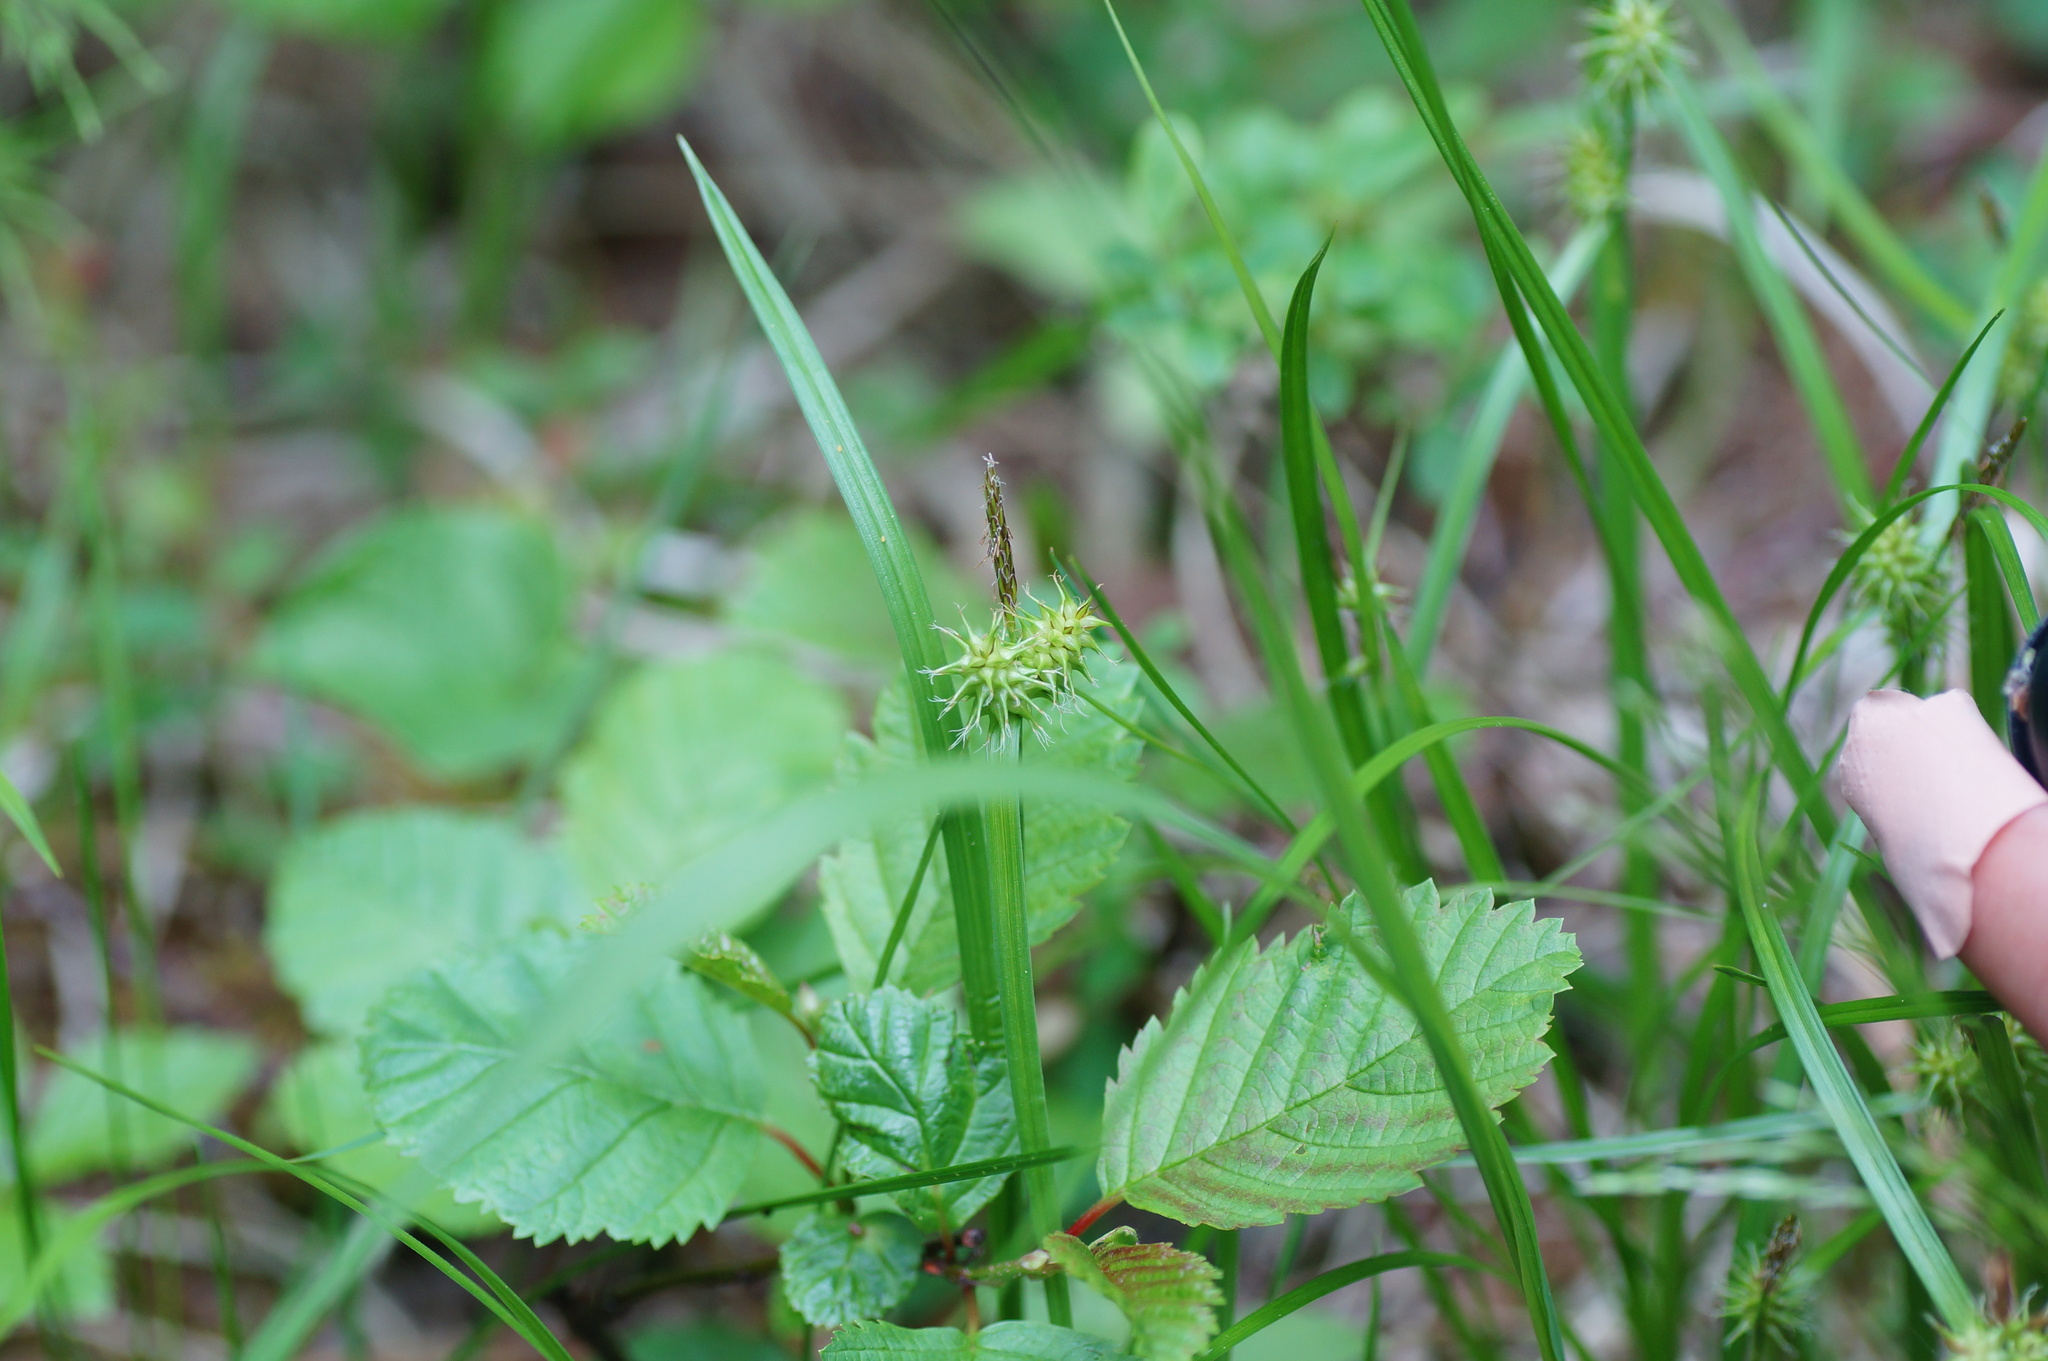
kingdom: Plantae
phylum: Tracheophyta
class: Liliopsida
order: Poales
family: Cyperaceae
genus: Carex
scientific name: Carex flava
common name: Large yellow-sedge
